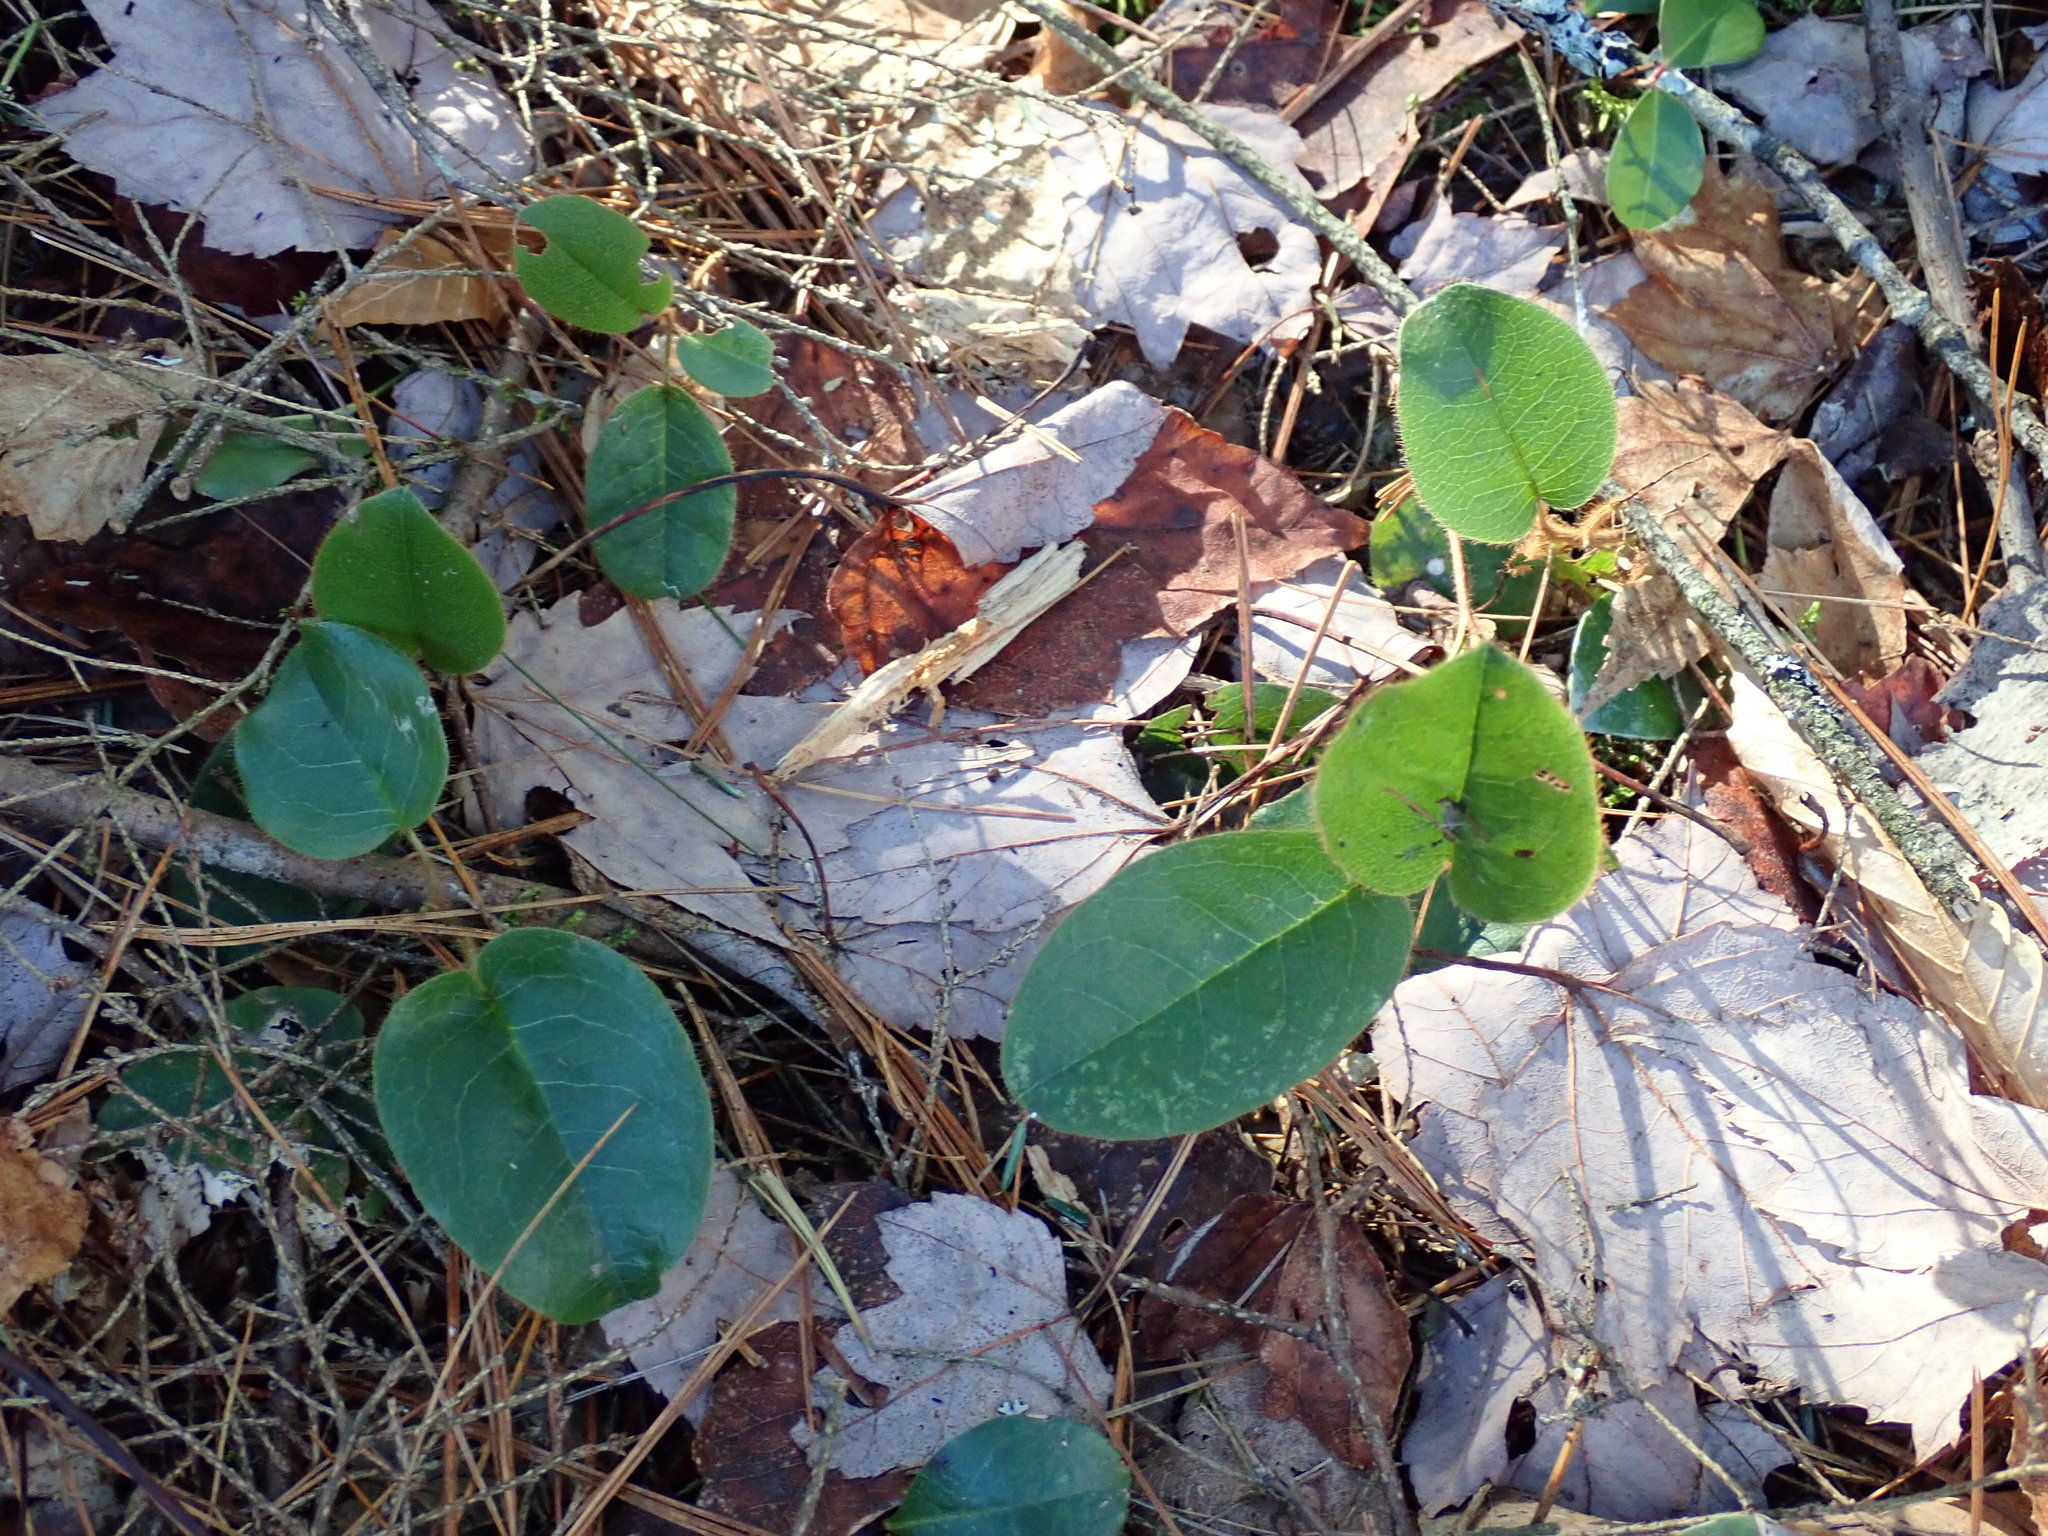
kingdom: Plantae
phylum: Tracheophyta
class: Magnoliopsida
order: Ericales
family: Ericaceae
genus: Epigaea
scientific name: Epigaea repens
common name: Gravelroot
